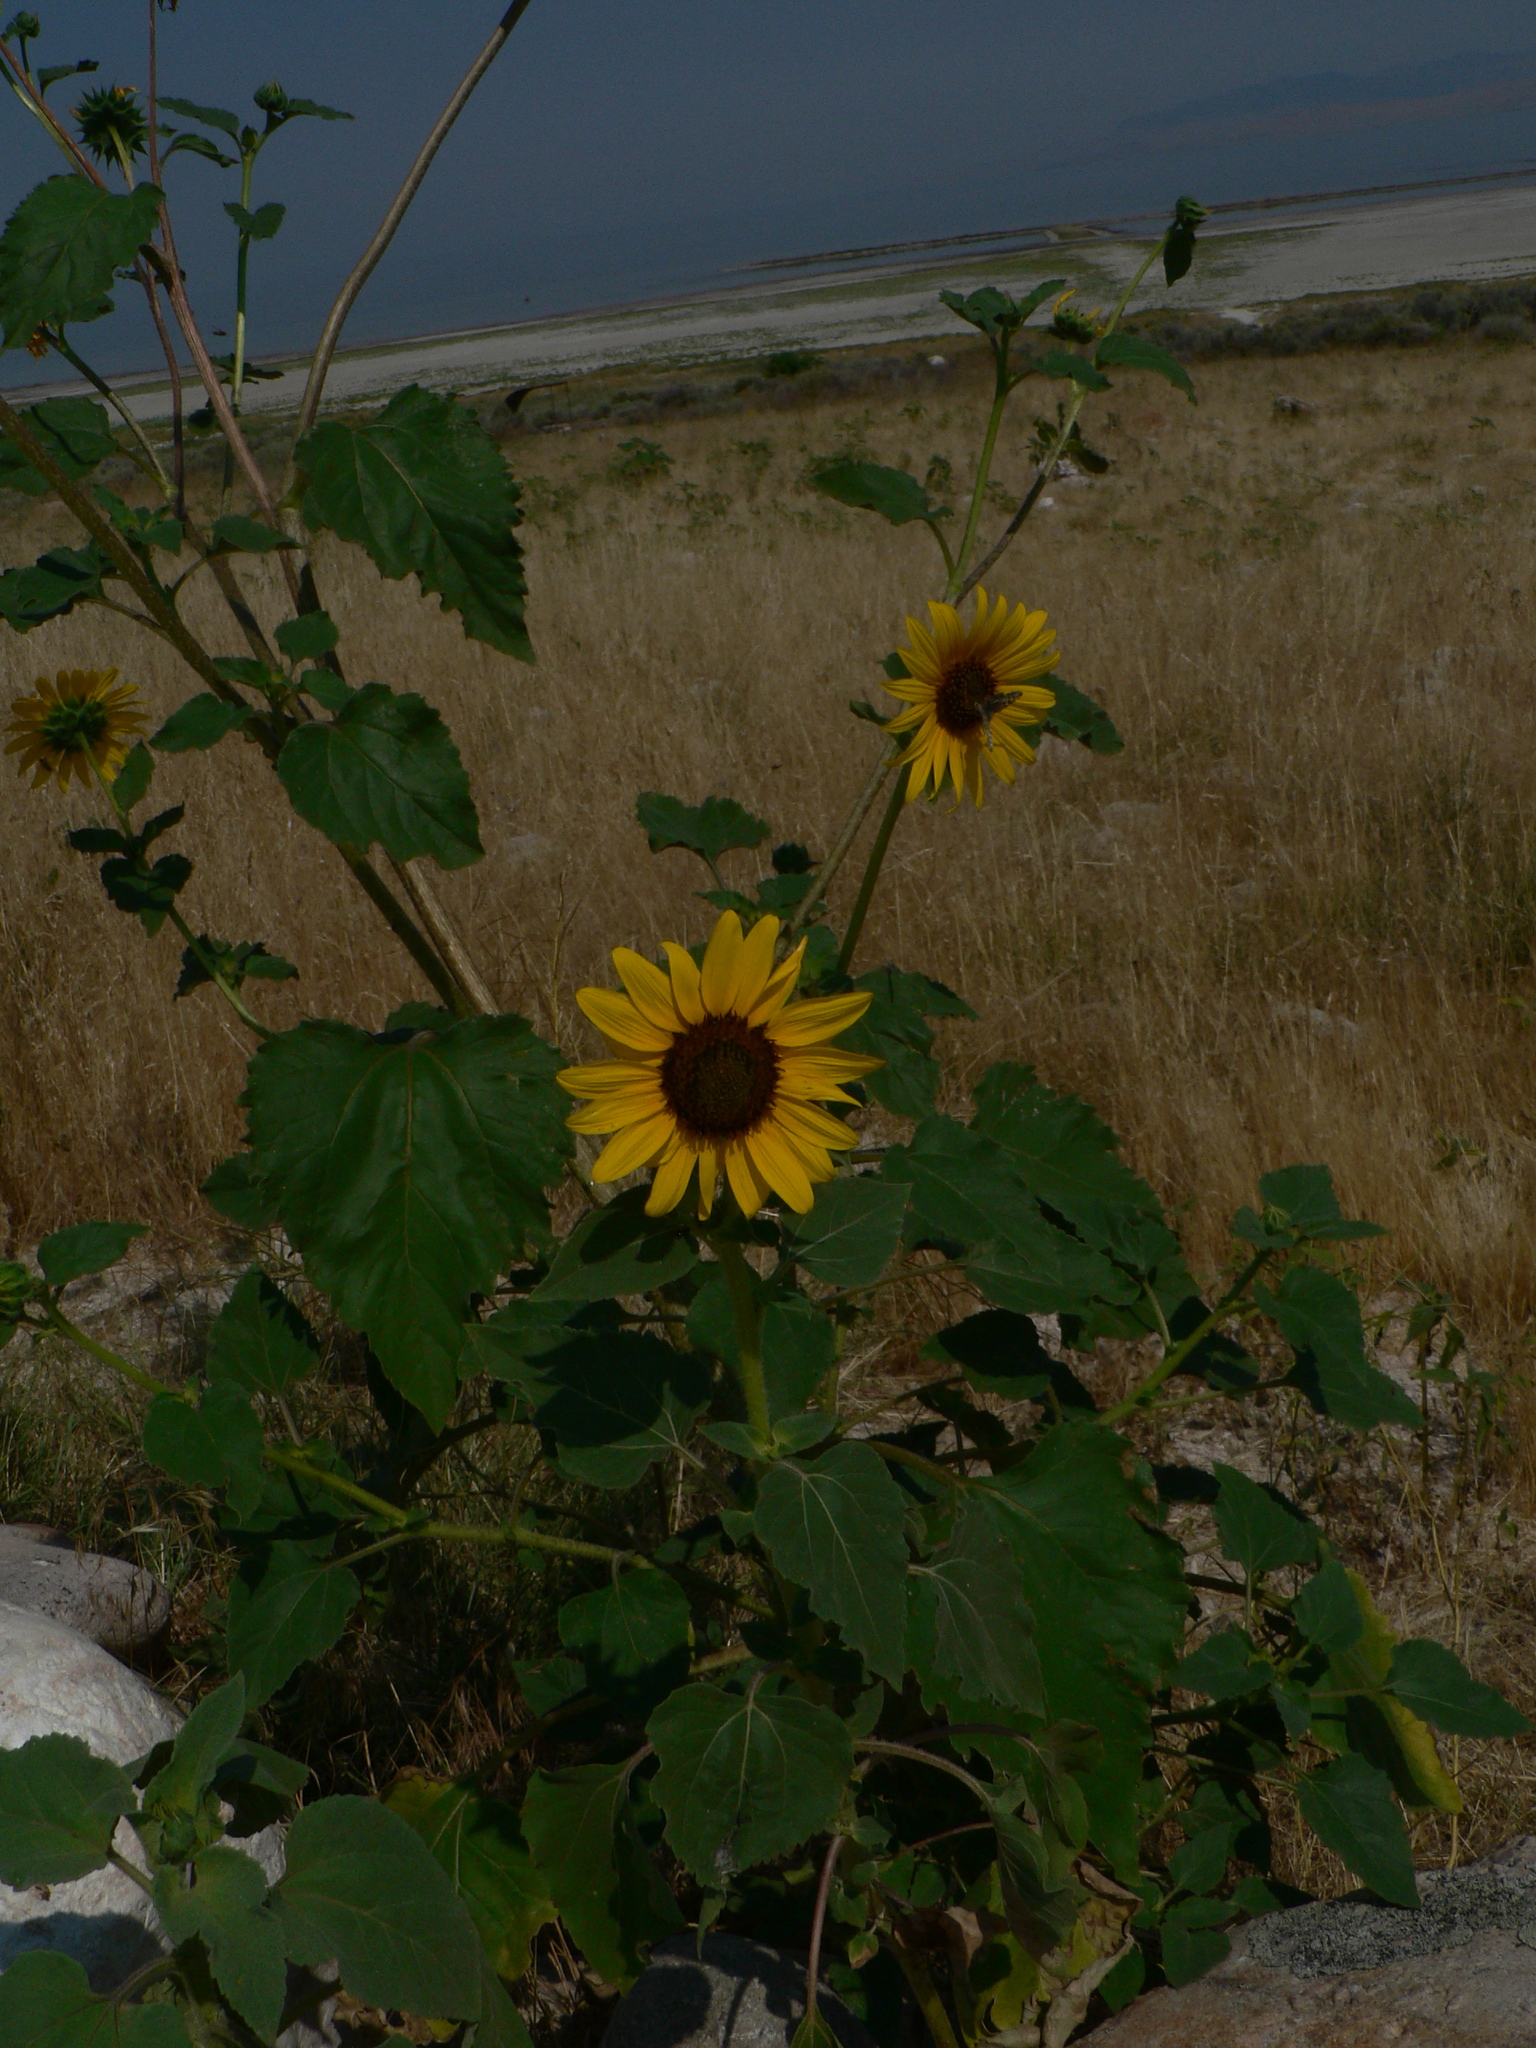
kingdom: Plantae
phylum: Tracheophyta
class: Magnoliopsida
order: Asterales
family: Asteraceae
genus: Helianthus
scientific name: Helianthus annuus
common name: Sunflower
